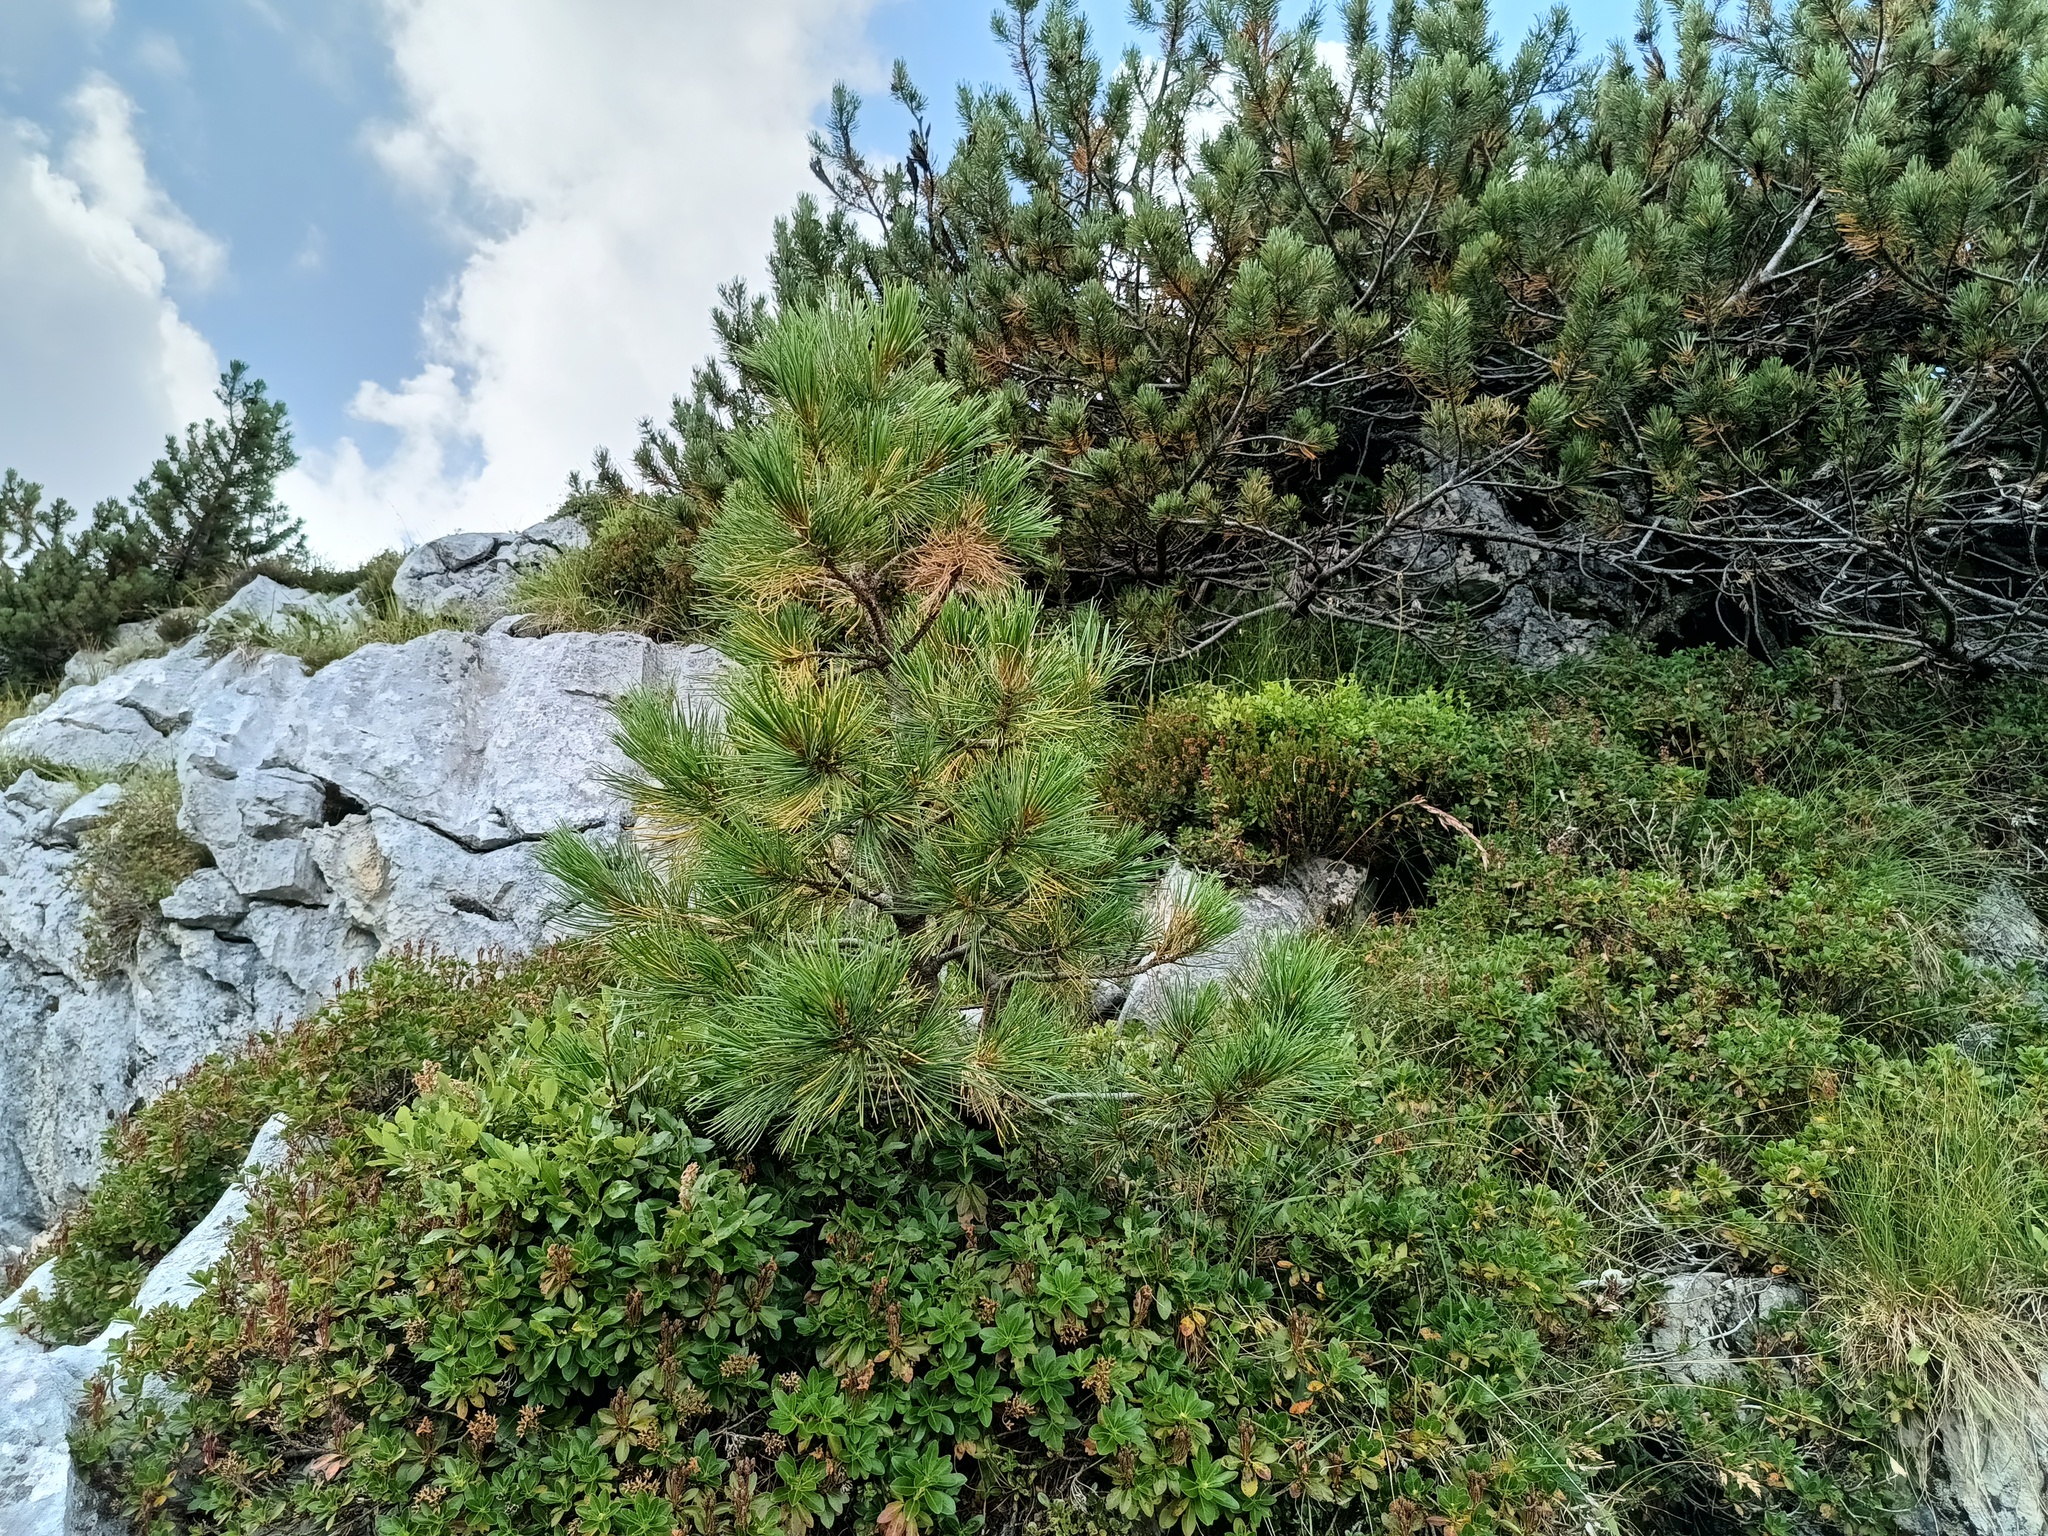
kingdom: Plantae
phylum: Tracheophyta
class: Pinopsida
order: Pinales
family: Pinaceae
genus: Pinus
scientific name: Pinus cembra
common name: Arolla pine
